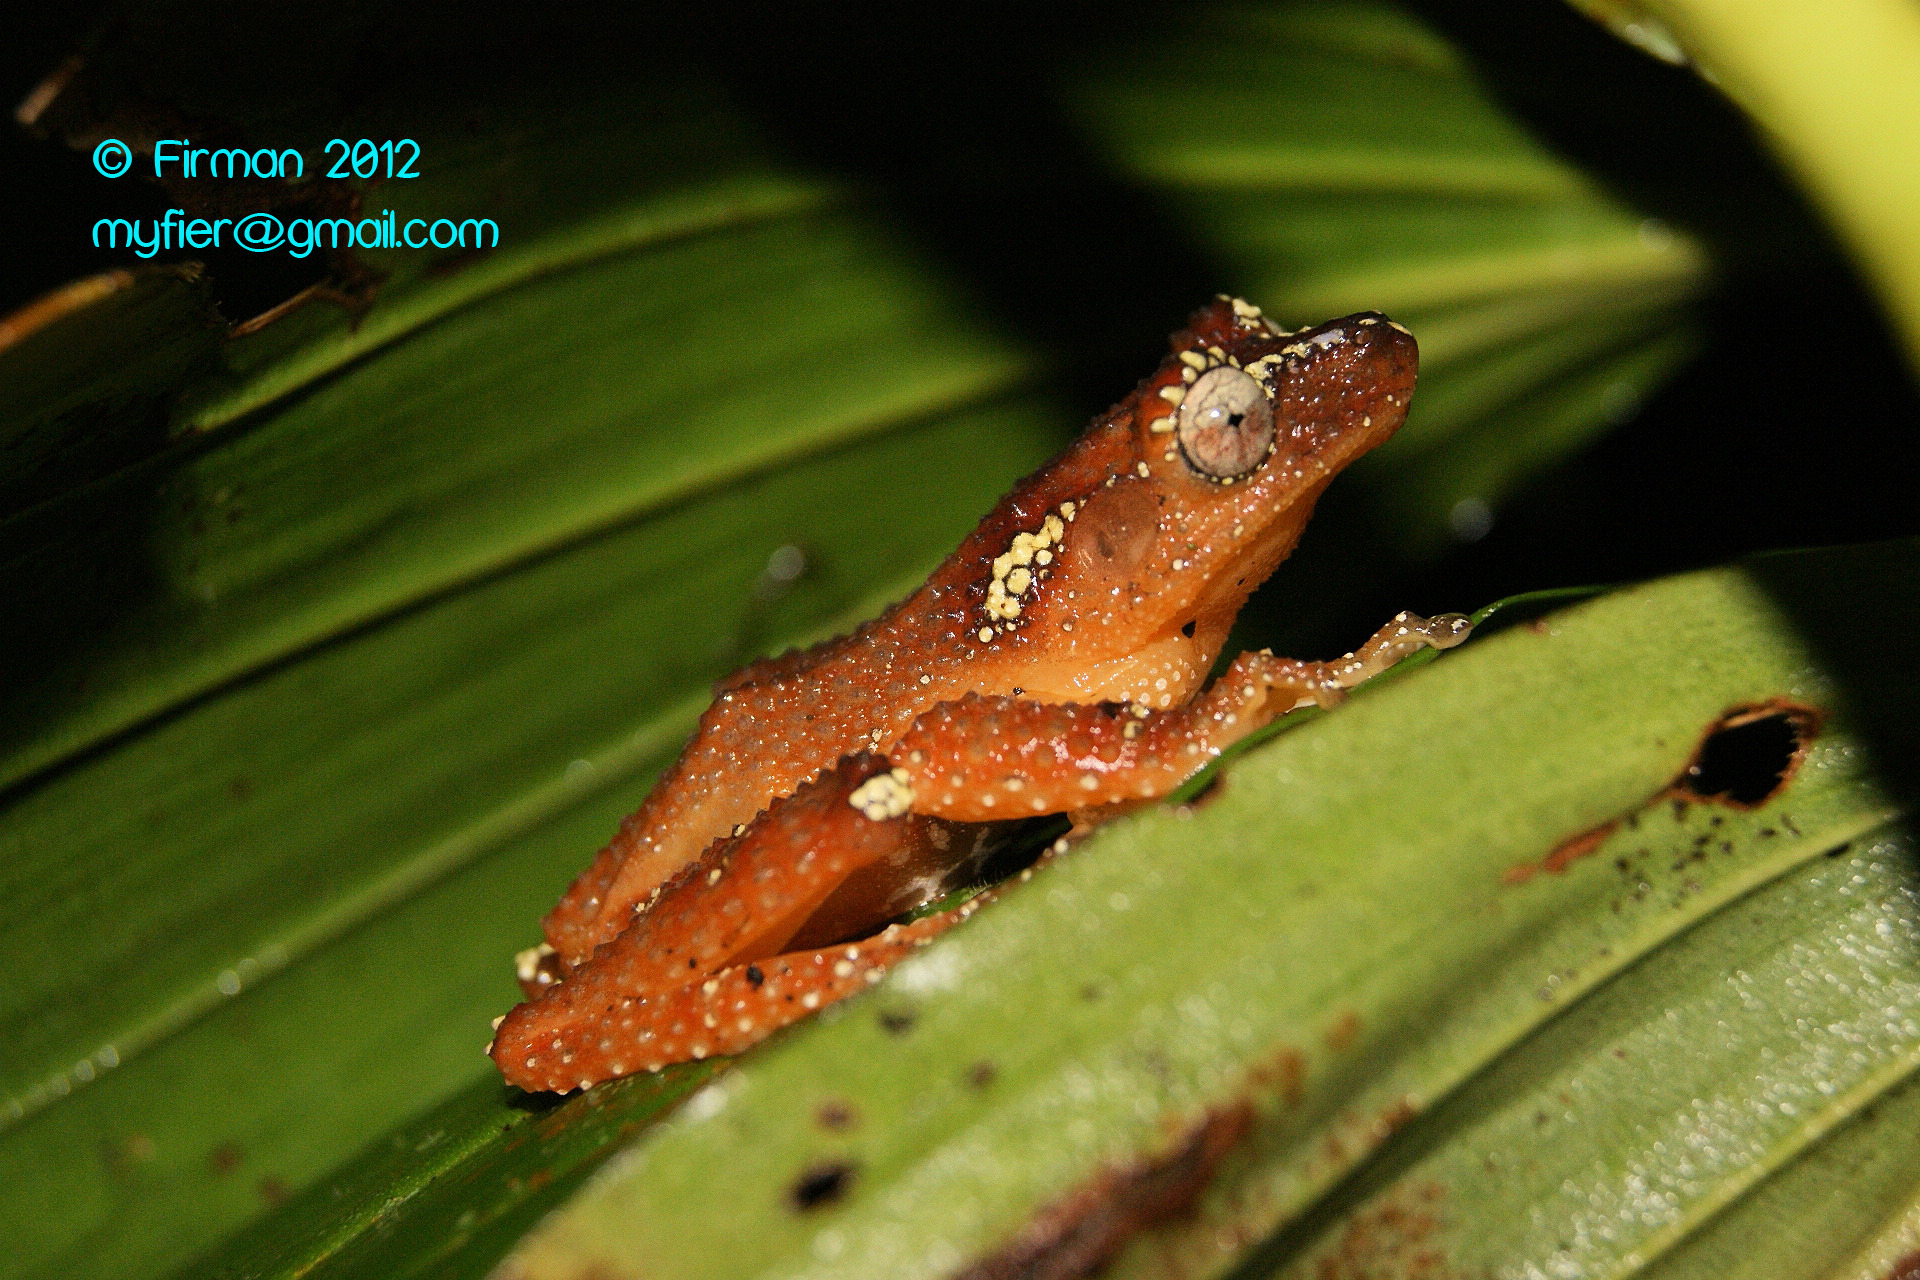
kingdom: Animalia
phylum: Chordata
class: Amphibia
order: Anura
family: Rhacophoridae
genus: Nyctixalus
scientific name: Nyctixalus margaritifer
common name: Java indonesian treefrog
